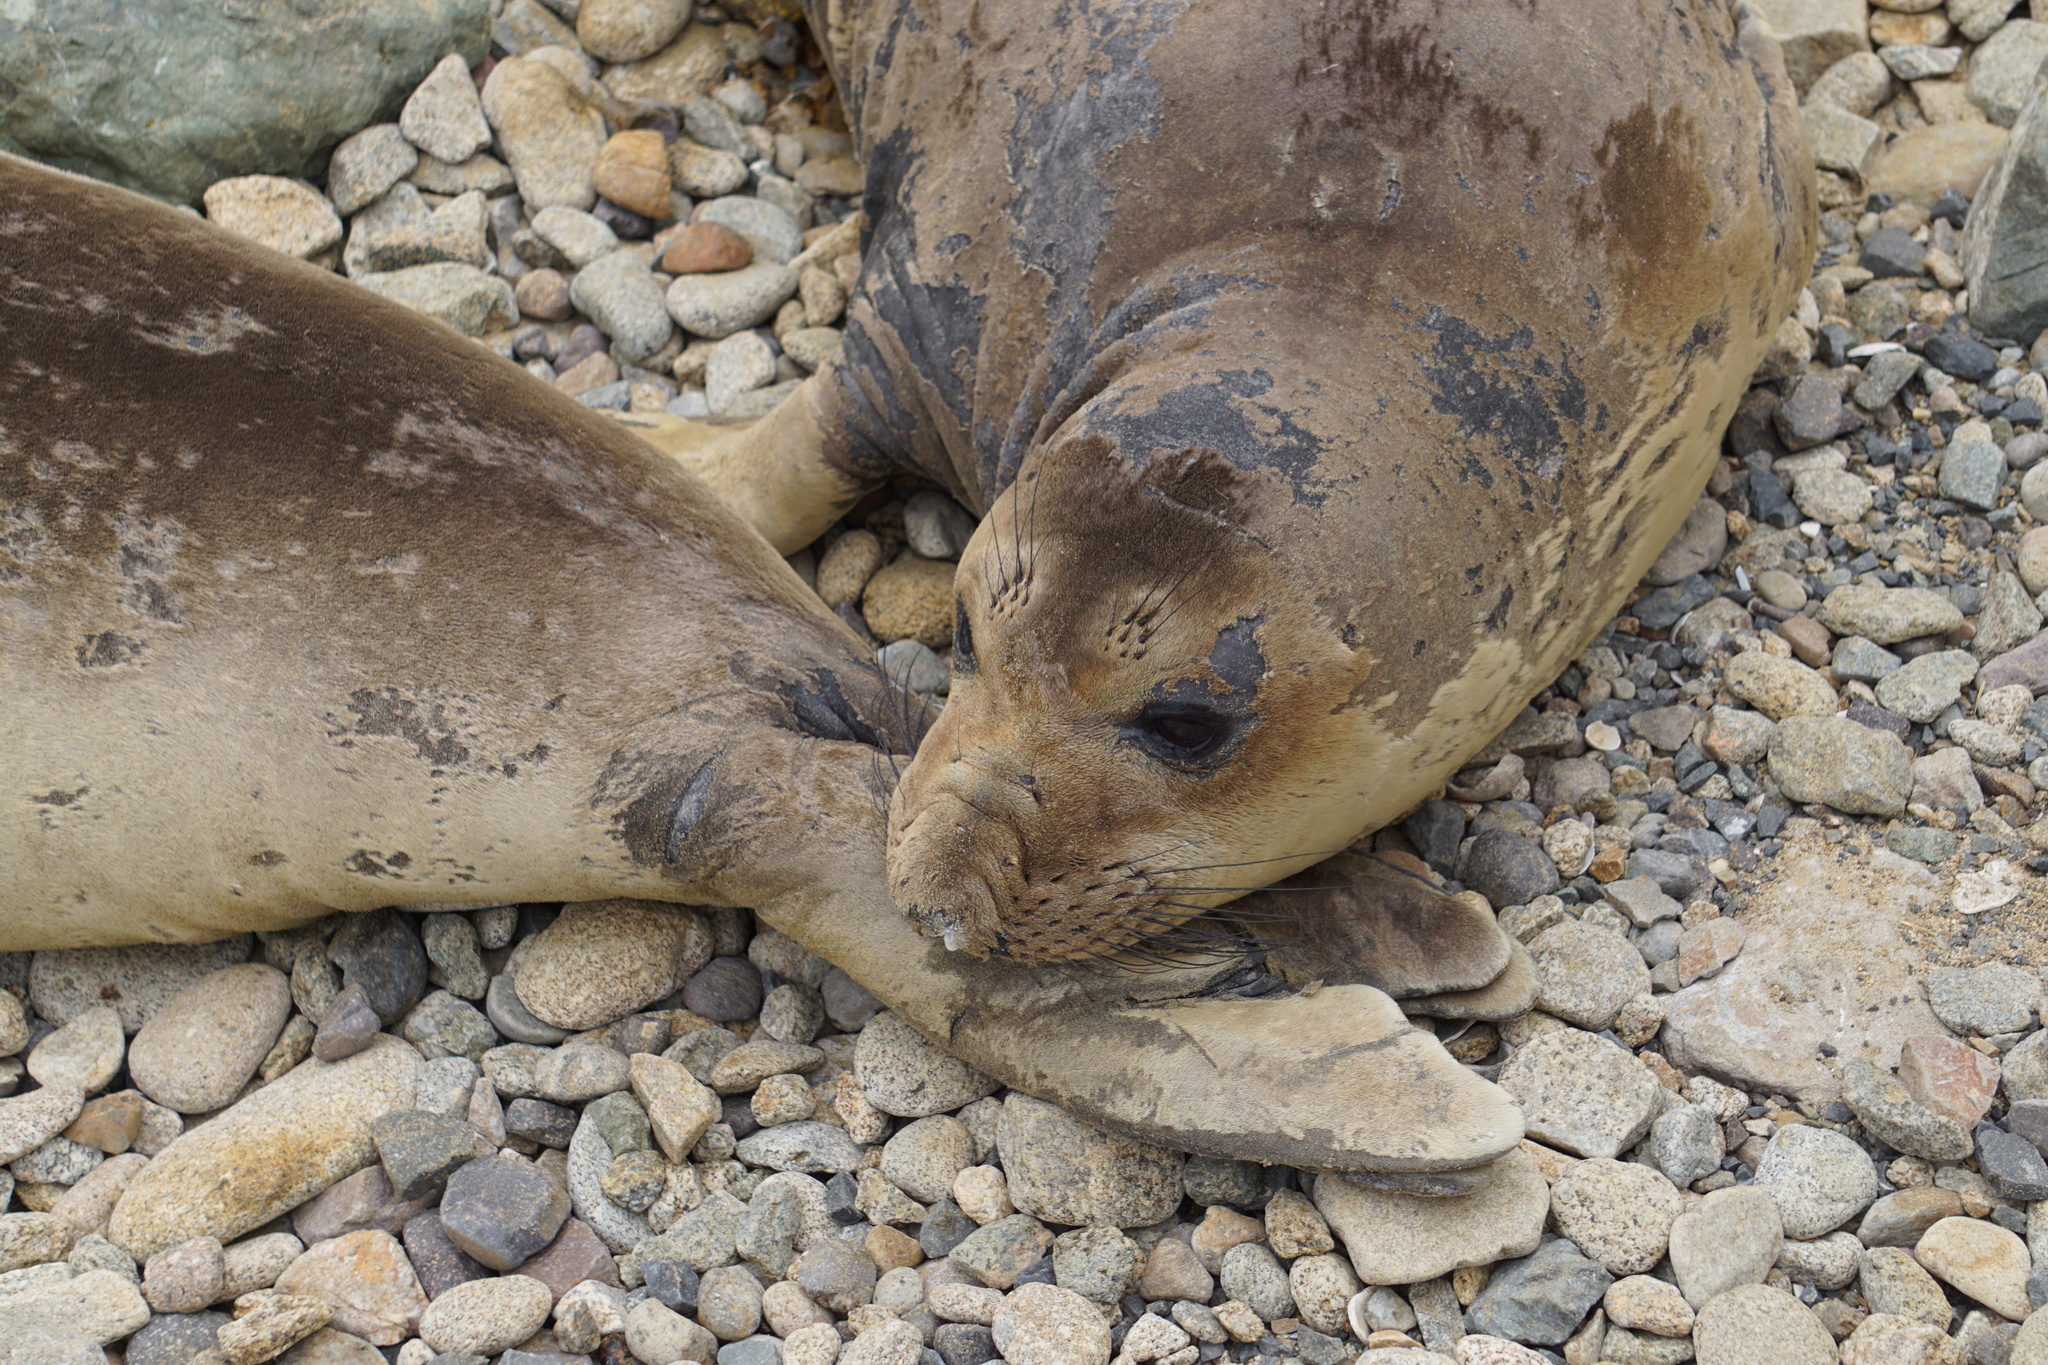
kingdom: Animalia
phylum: Chordata
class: Mammalia
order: Carnivora
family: Phocidae
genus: Mirounga
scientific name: Mirounga angustirostris
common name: Northern elephant seal
